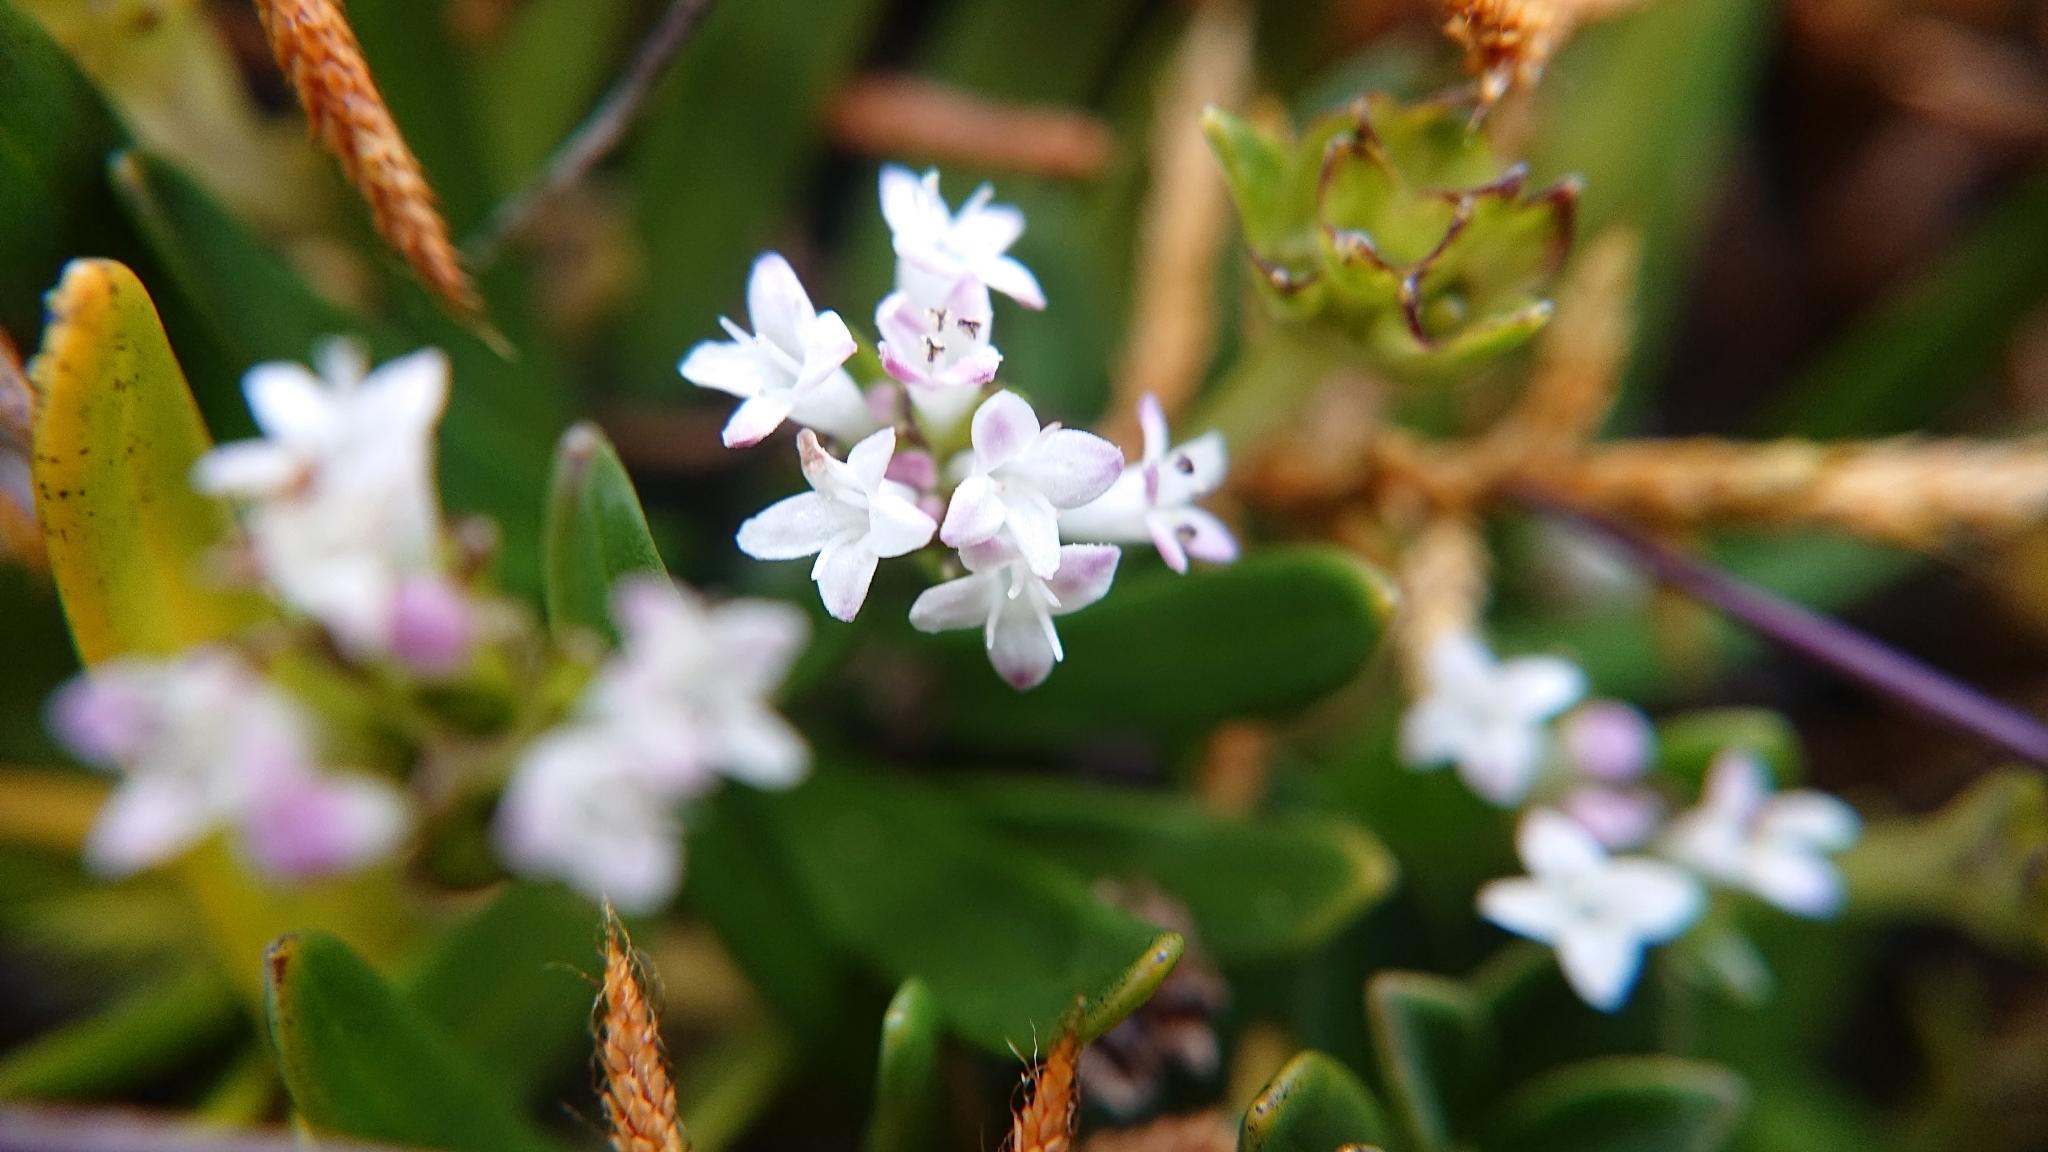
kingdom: Plantae
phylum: Tracheophyta
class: Magnoliopsida
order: Dipsacales
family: Caprifoliaceae
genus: Valeriana
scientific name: Valeriana bracteata
